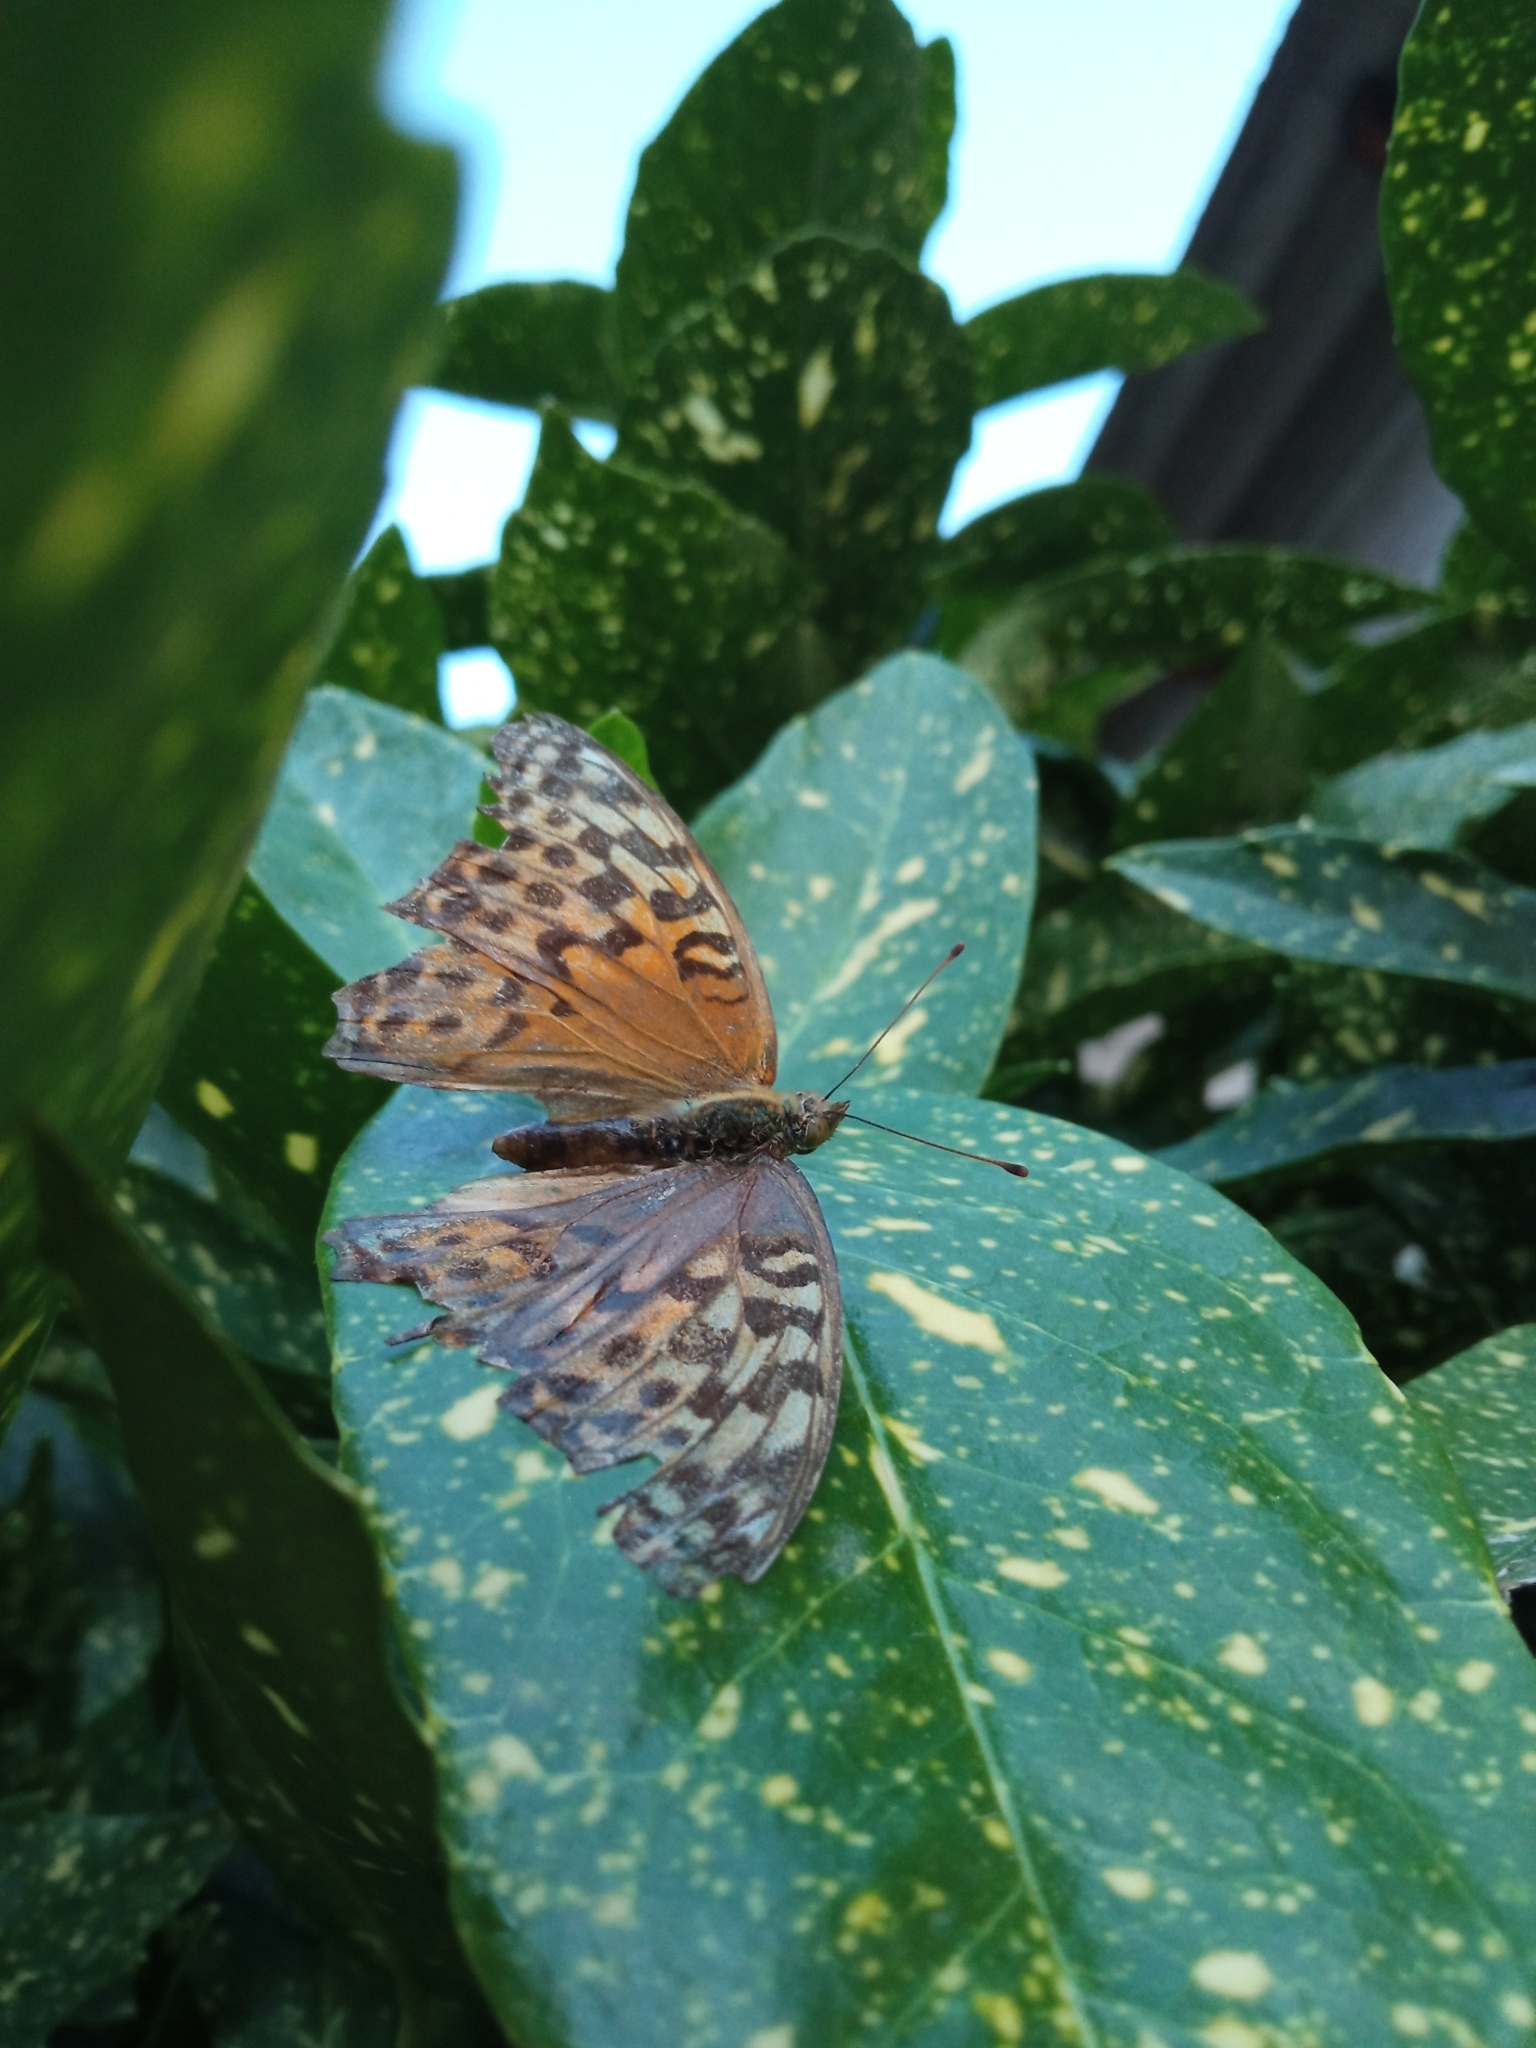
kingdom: Animalia
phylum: Arthropoda
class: Insecta
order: Lepidoptera
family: Nymphalidae
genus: Argynnis
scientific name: Argynnis paphia
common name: Silver-washed fritillary
